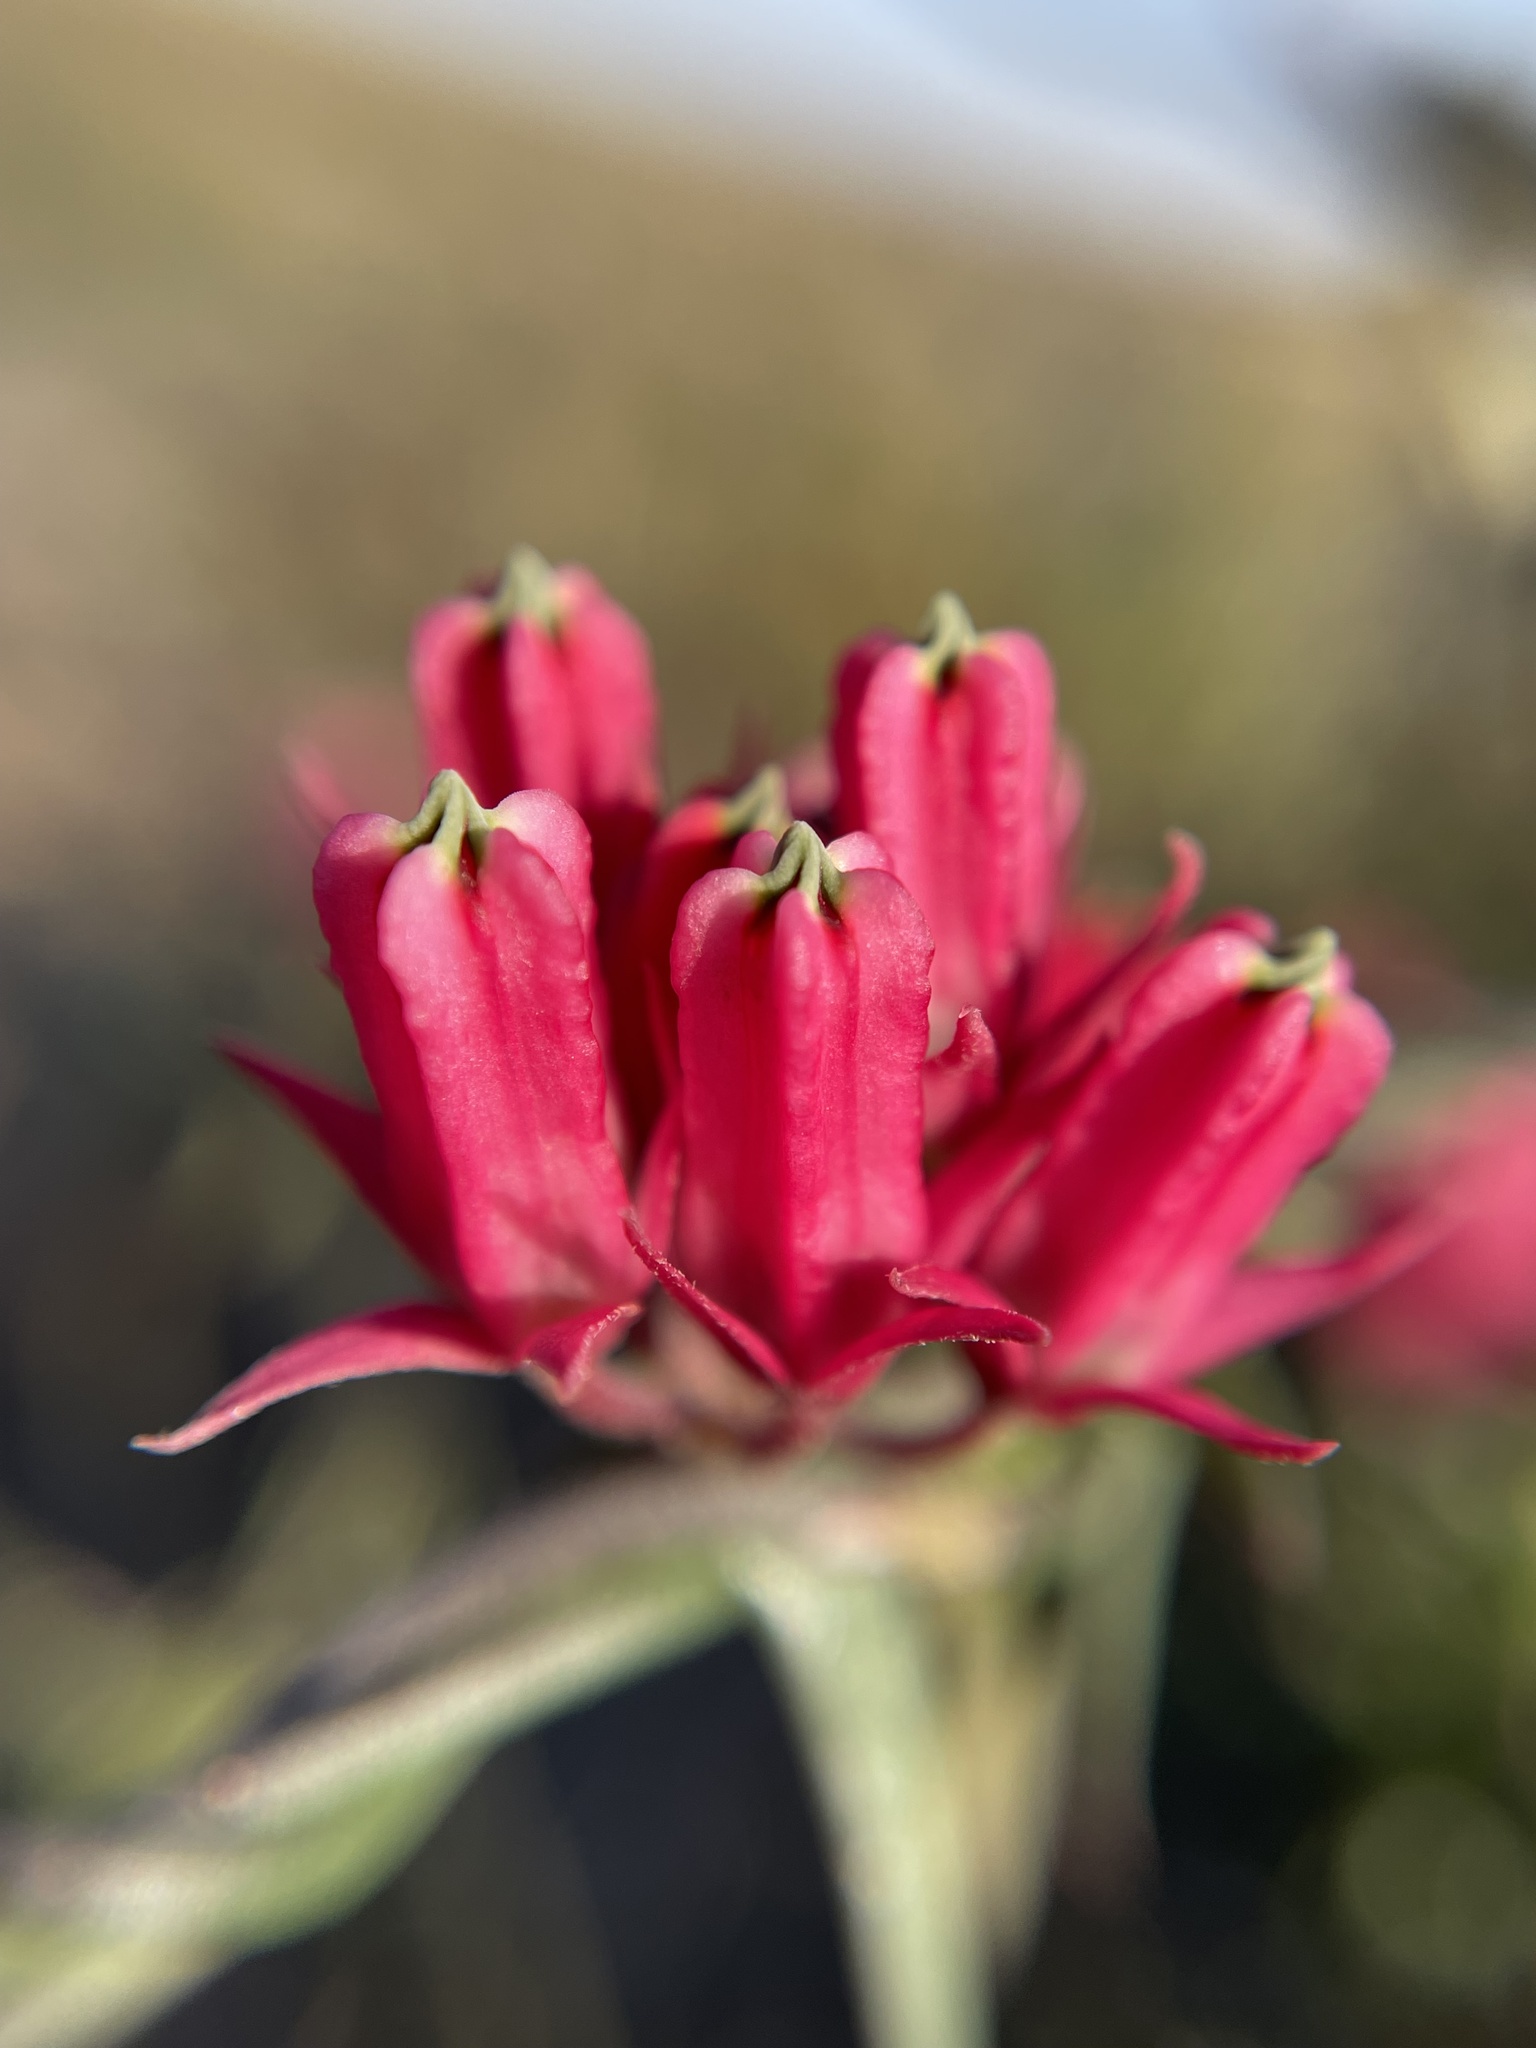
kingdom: Plantae
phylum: Tracheophyta
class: Magnoliopsida
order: Gentianales
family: Apocynaceae
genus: Microloma
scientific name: Microloma sagittatum
